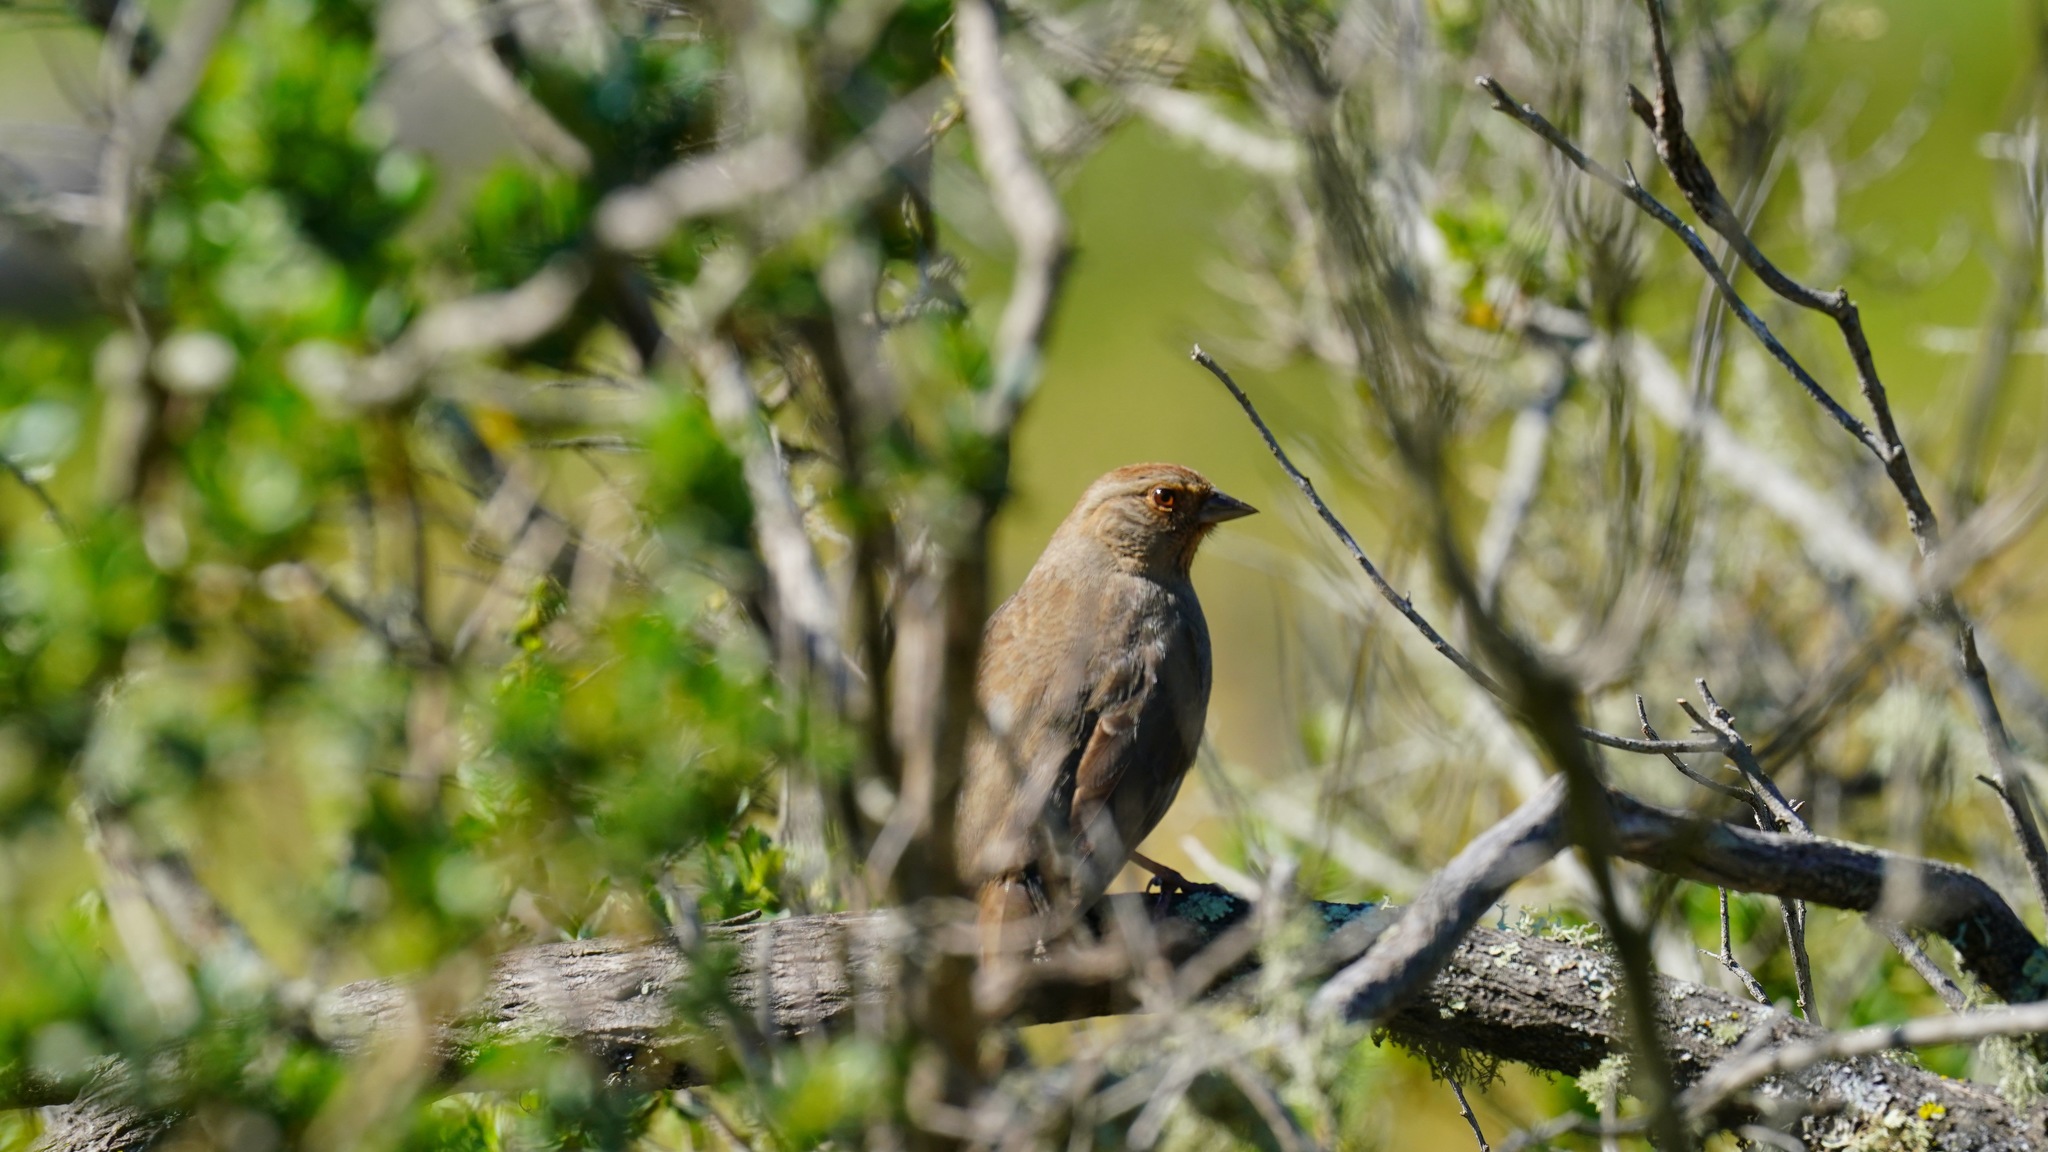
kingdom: Animalia
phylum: Chordata
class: Aves
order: Passeriformes
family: Passerellidae
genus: Melozone
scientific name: Melozone crissalis
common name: California towhee
